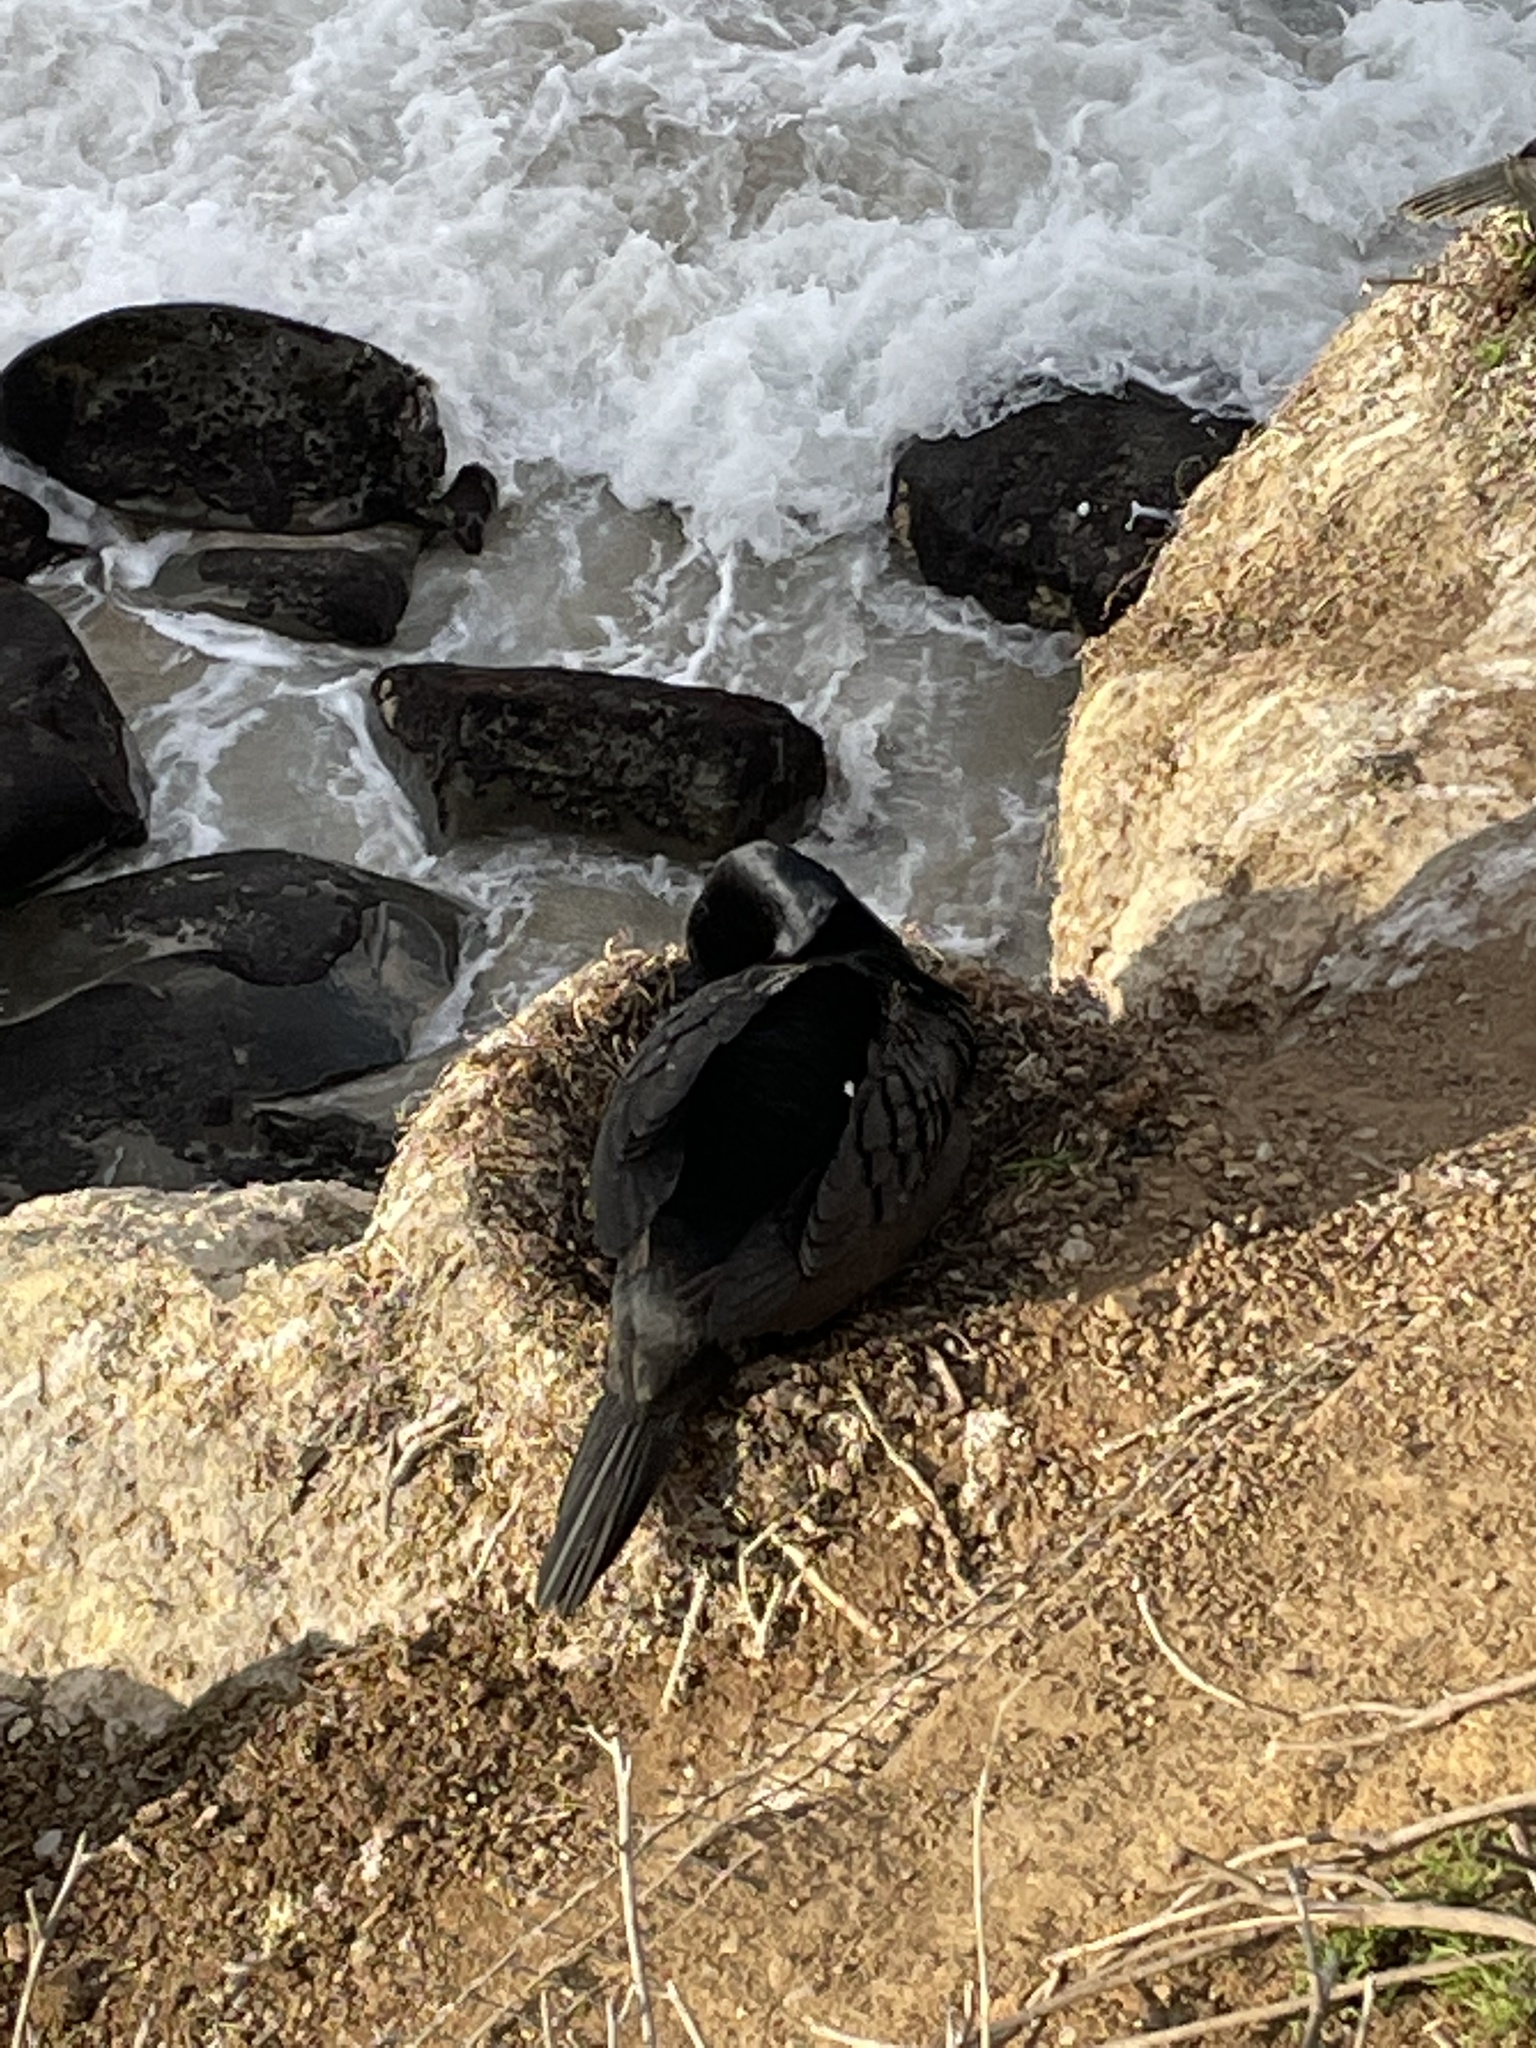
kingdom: Animalia
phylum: Chordata
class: Aves
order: Suliformes
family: Phalacrocoracidae
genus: Urile
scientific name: Urile penicillatus
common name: Brandt's cormorant
